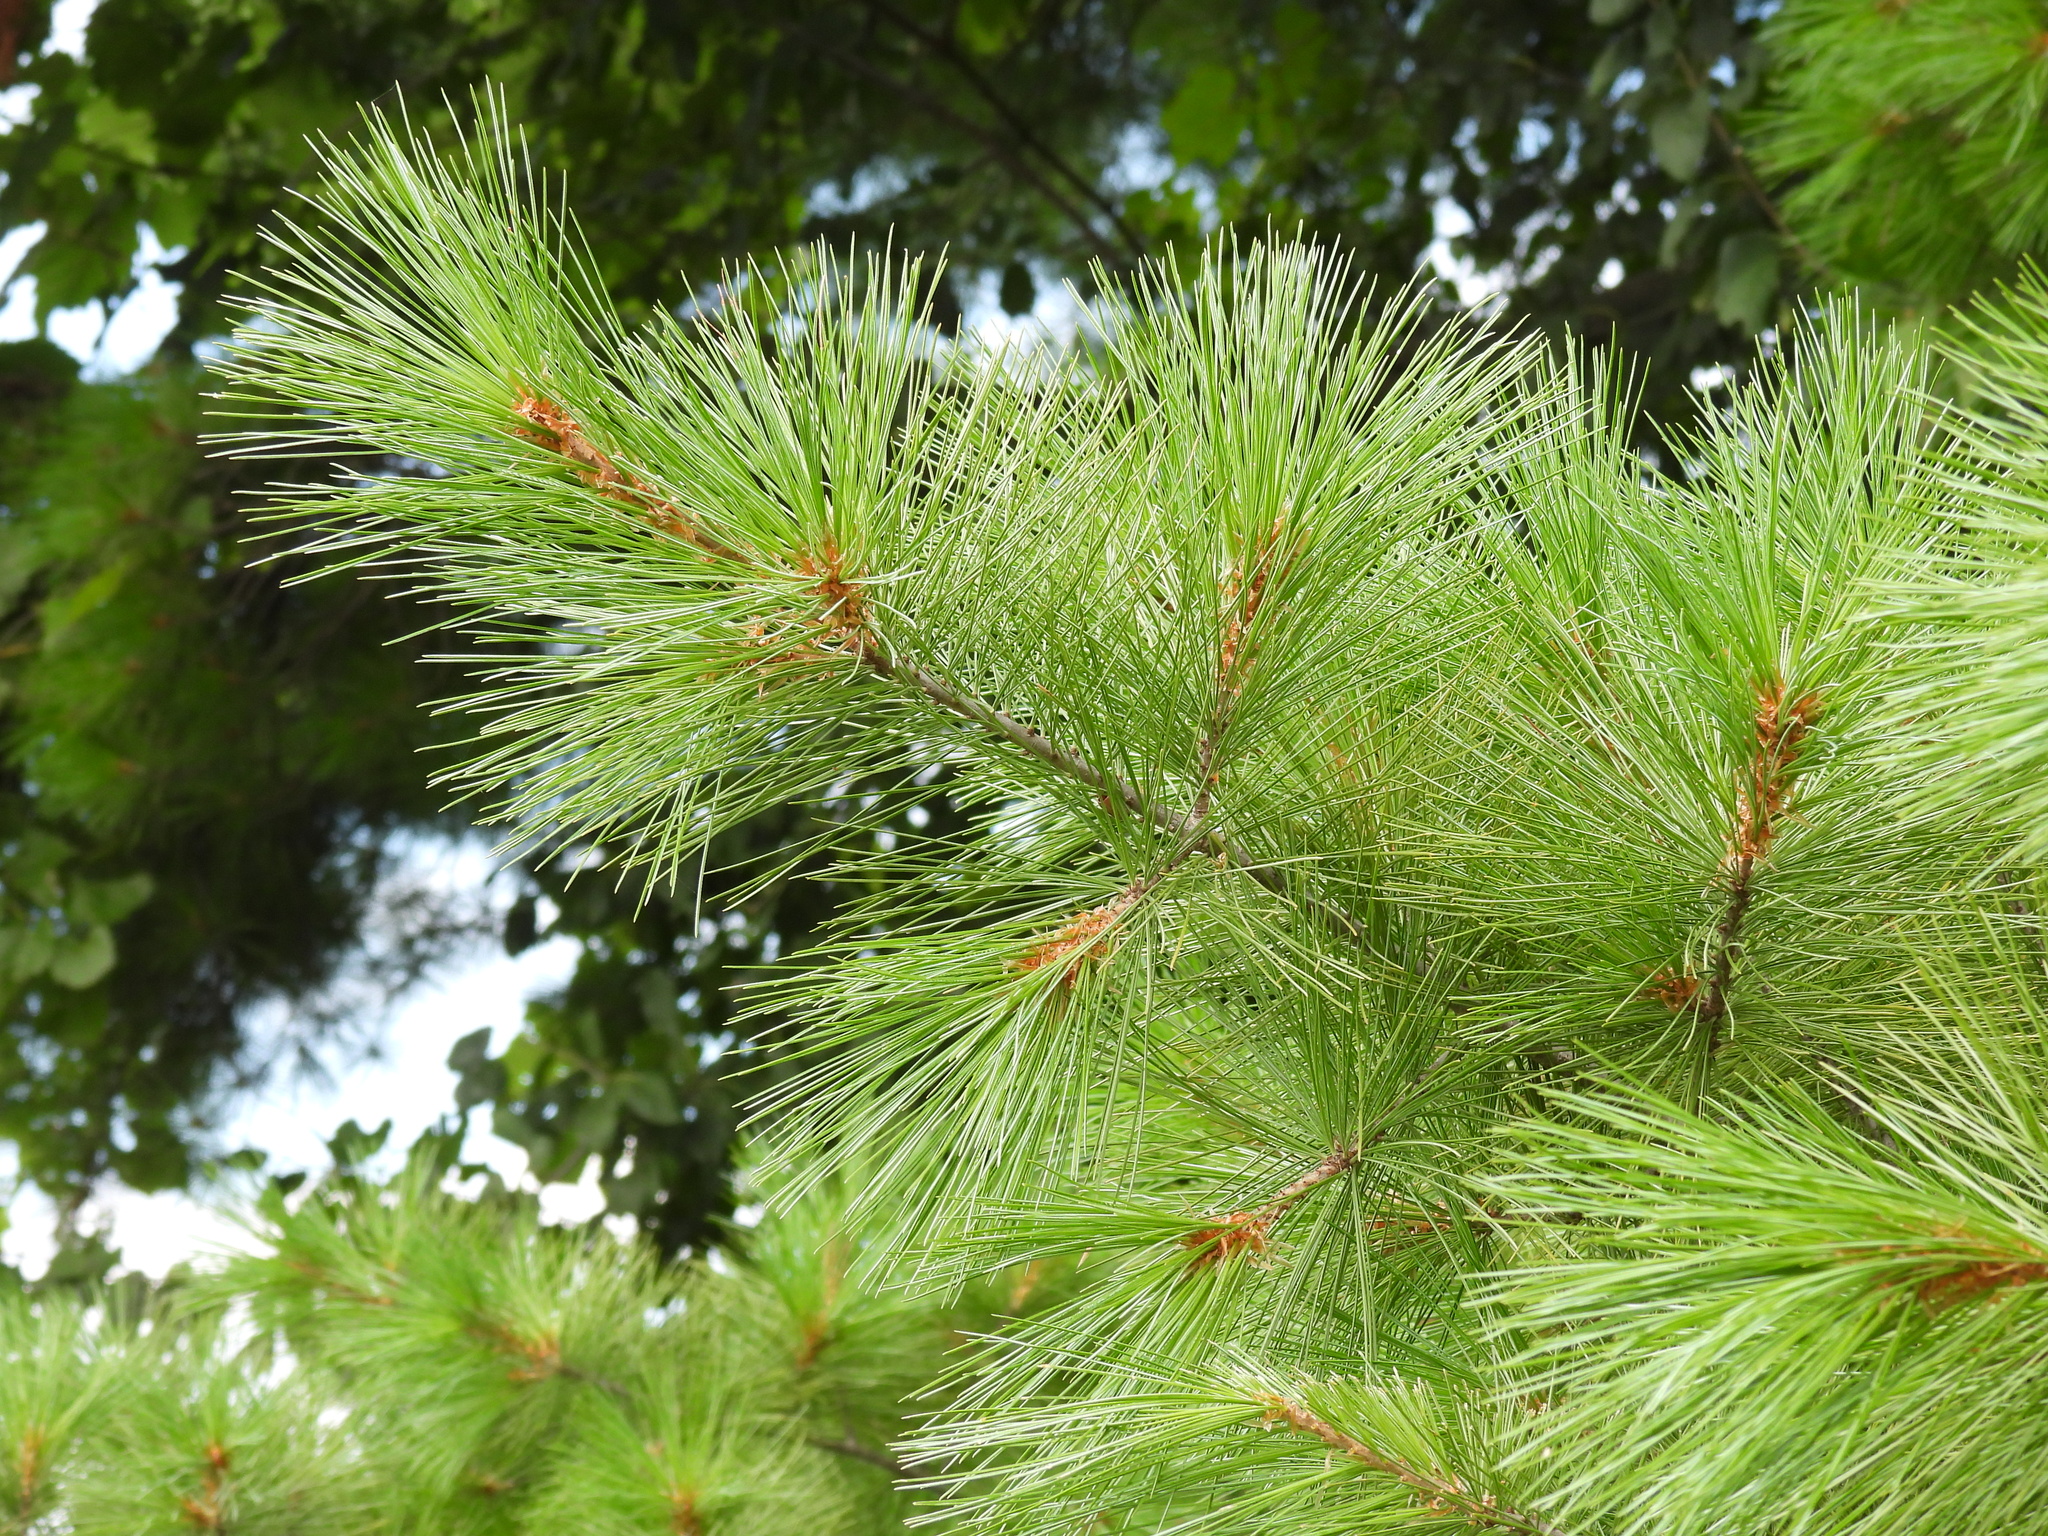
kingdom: Plantae
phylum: Tracheophyta
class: Pinopsida
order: Pinales
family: Pinaceae
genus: Pinus
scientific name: Pinus strobus
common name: Weymouth pine
